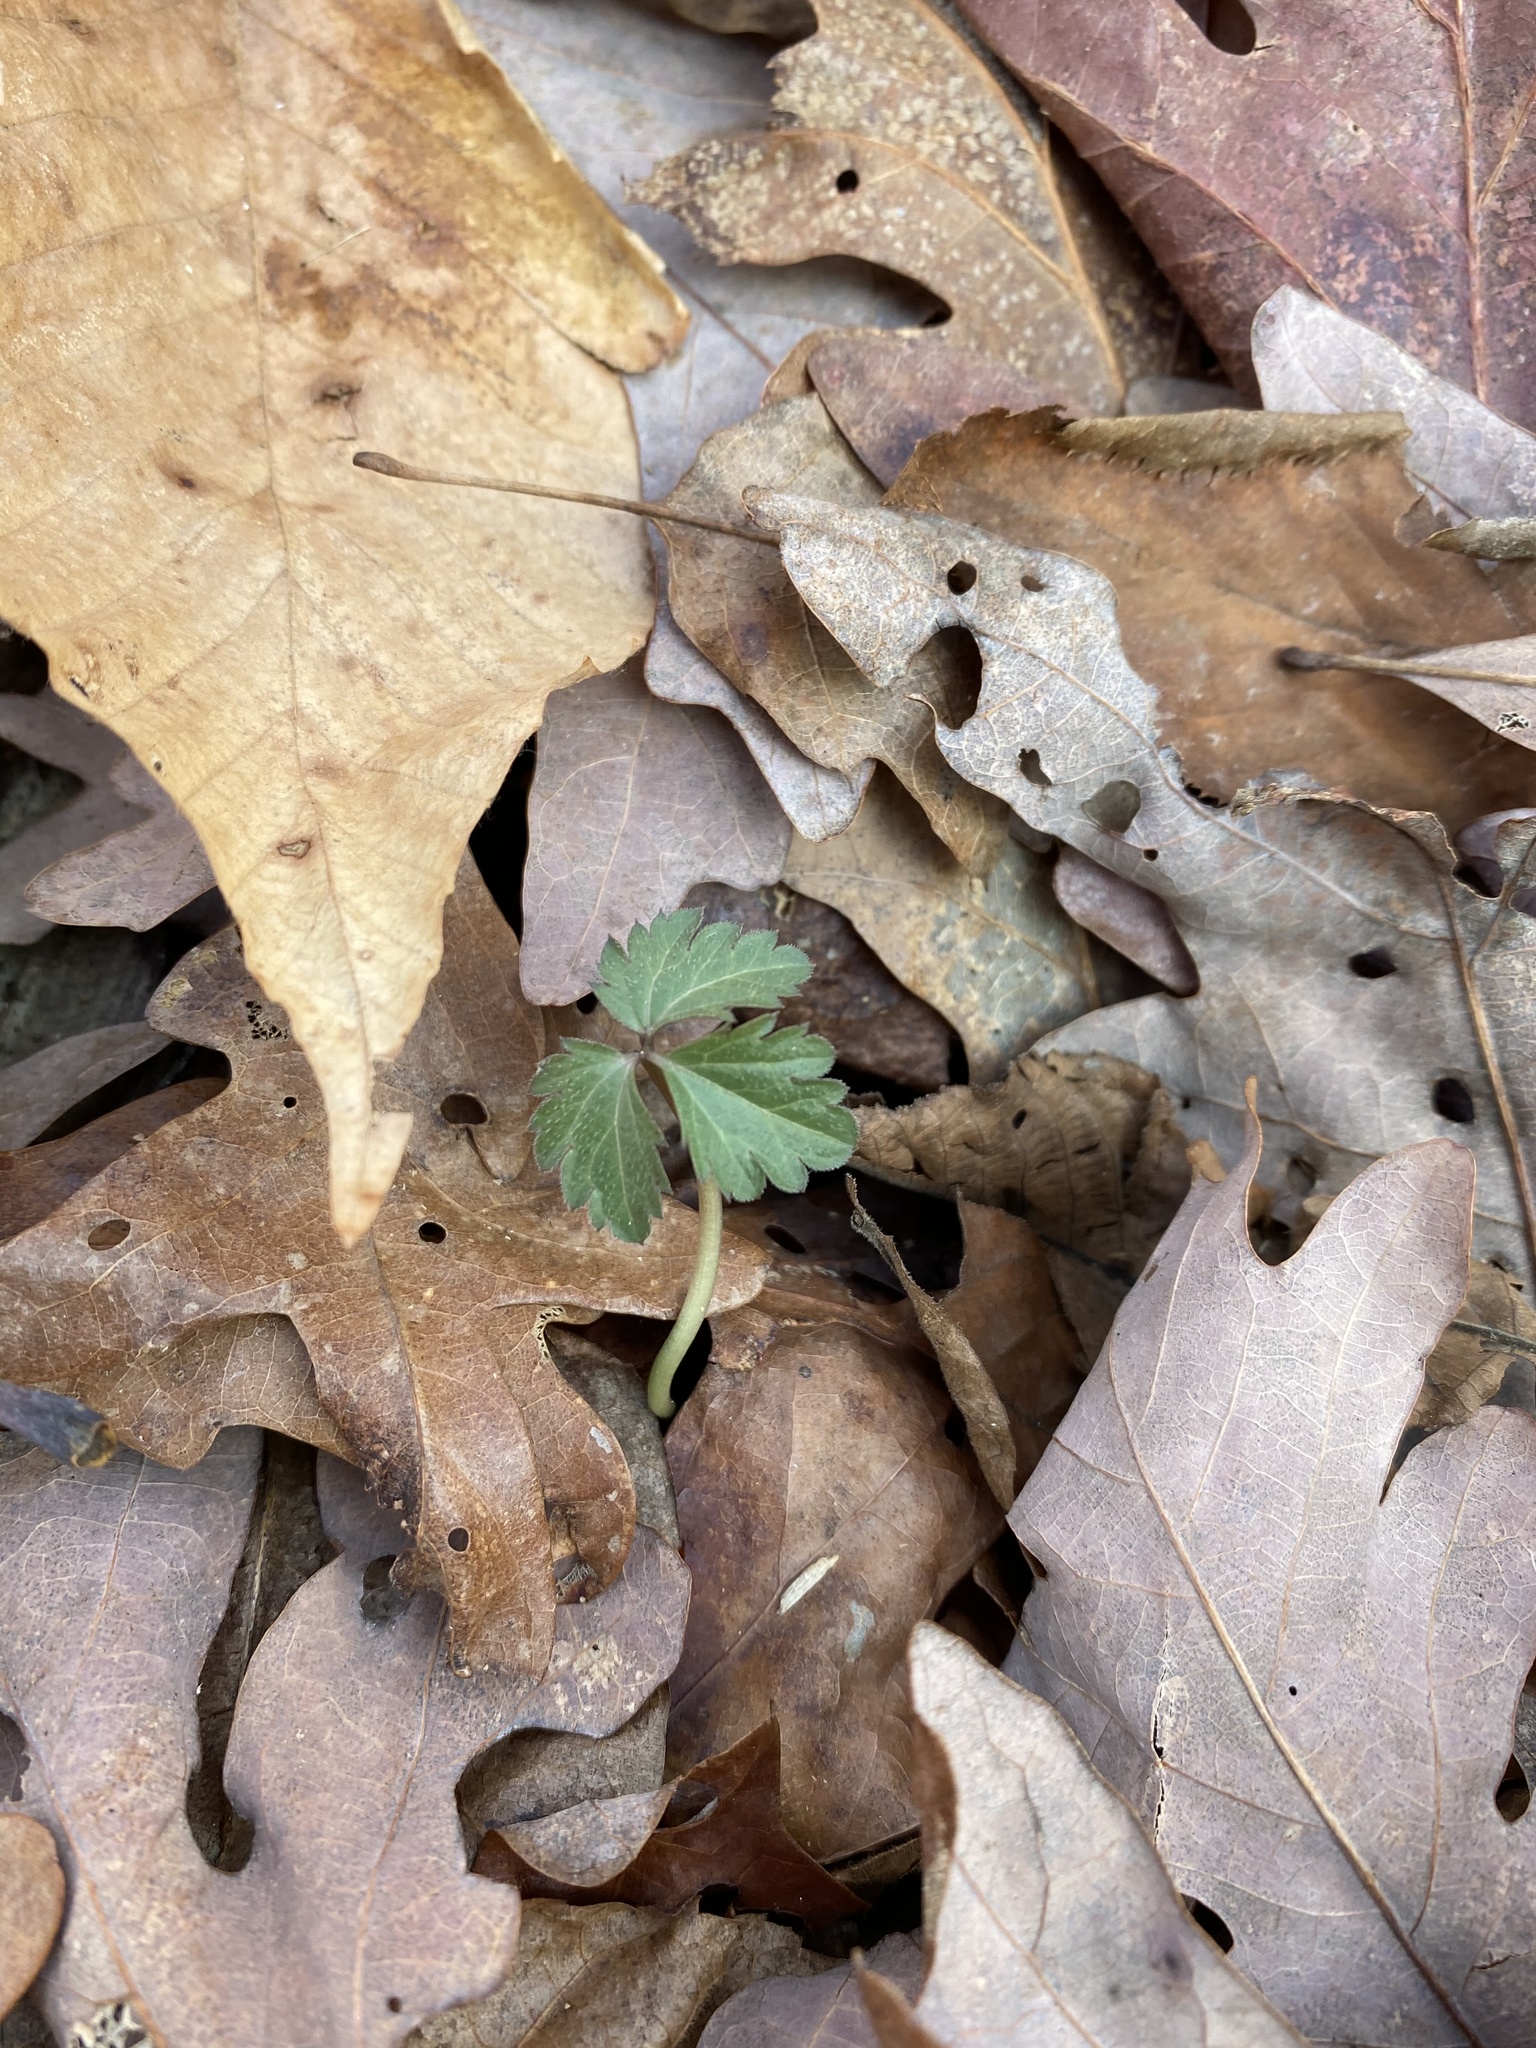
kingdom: Plantae
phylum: Tracheophyta
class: Magnoliopsida
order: Brassicales
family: Brassicaceae
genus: Cardamine
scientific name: Cardamine diphylla
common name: Broad-leaved toothwort
